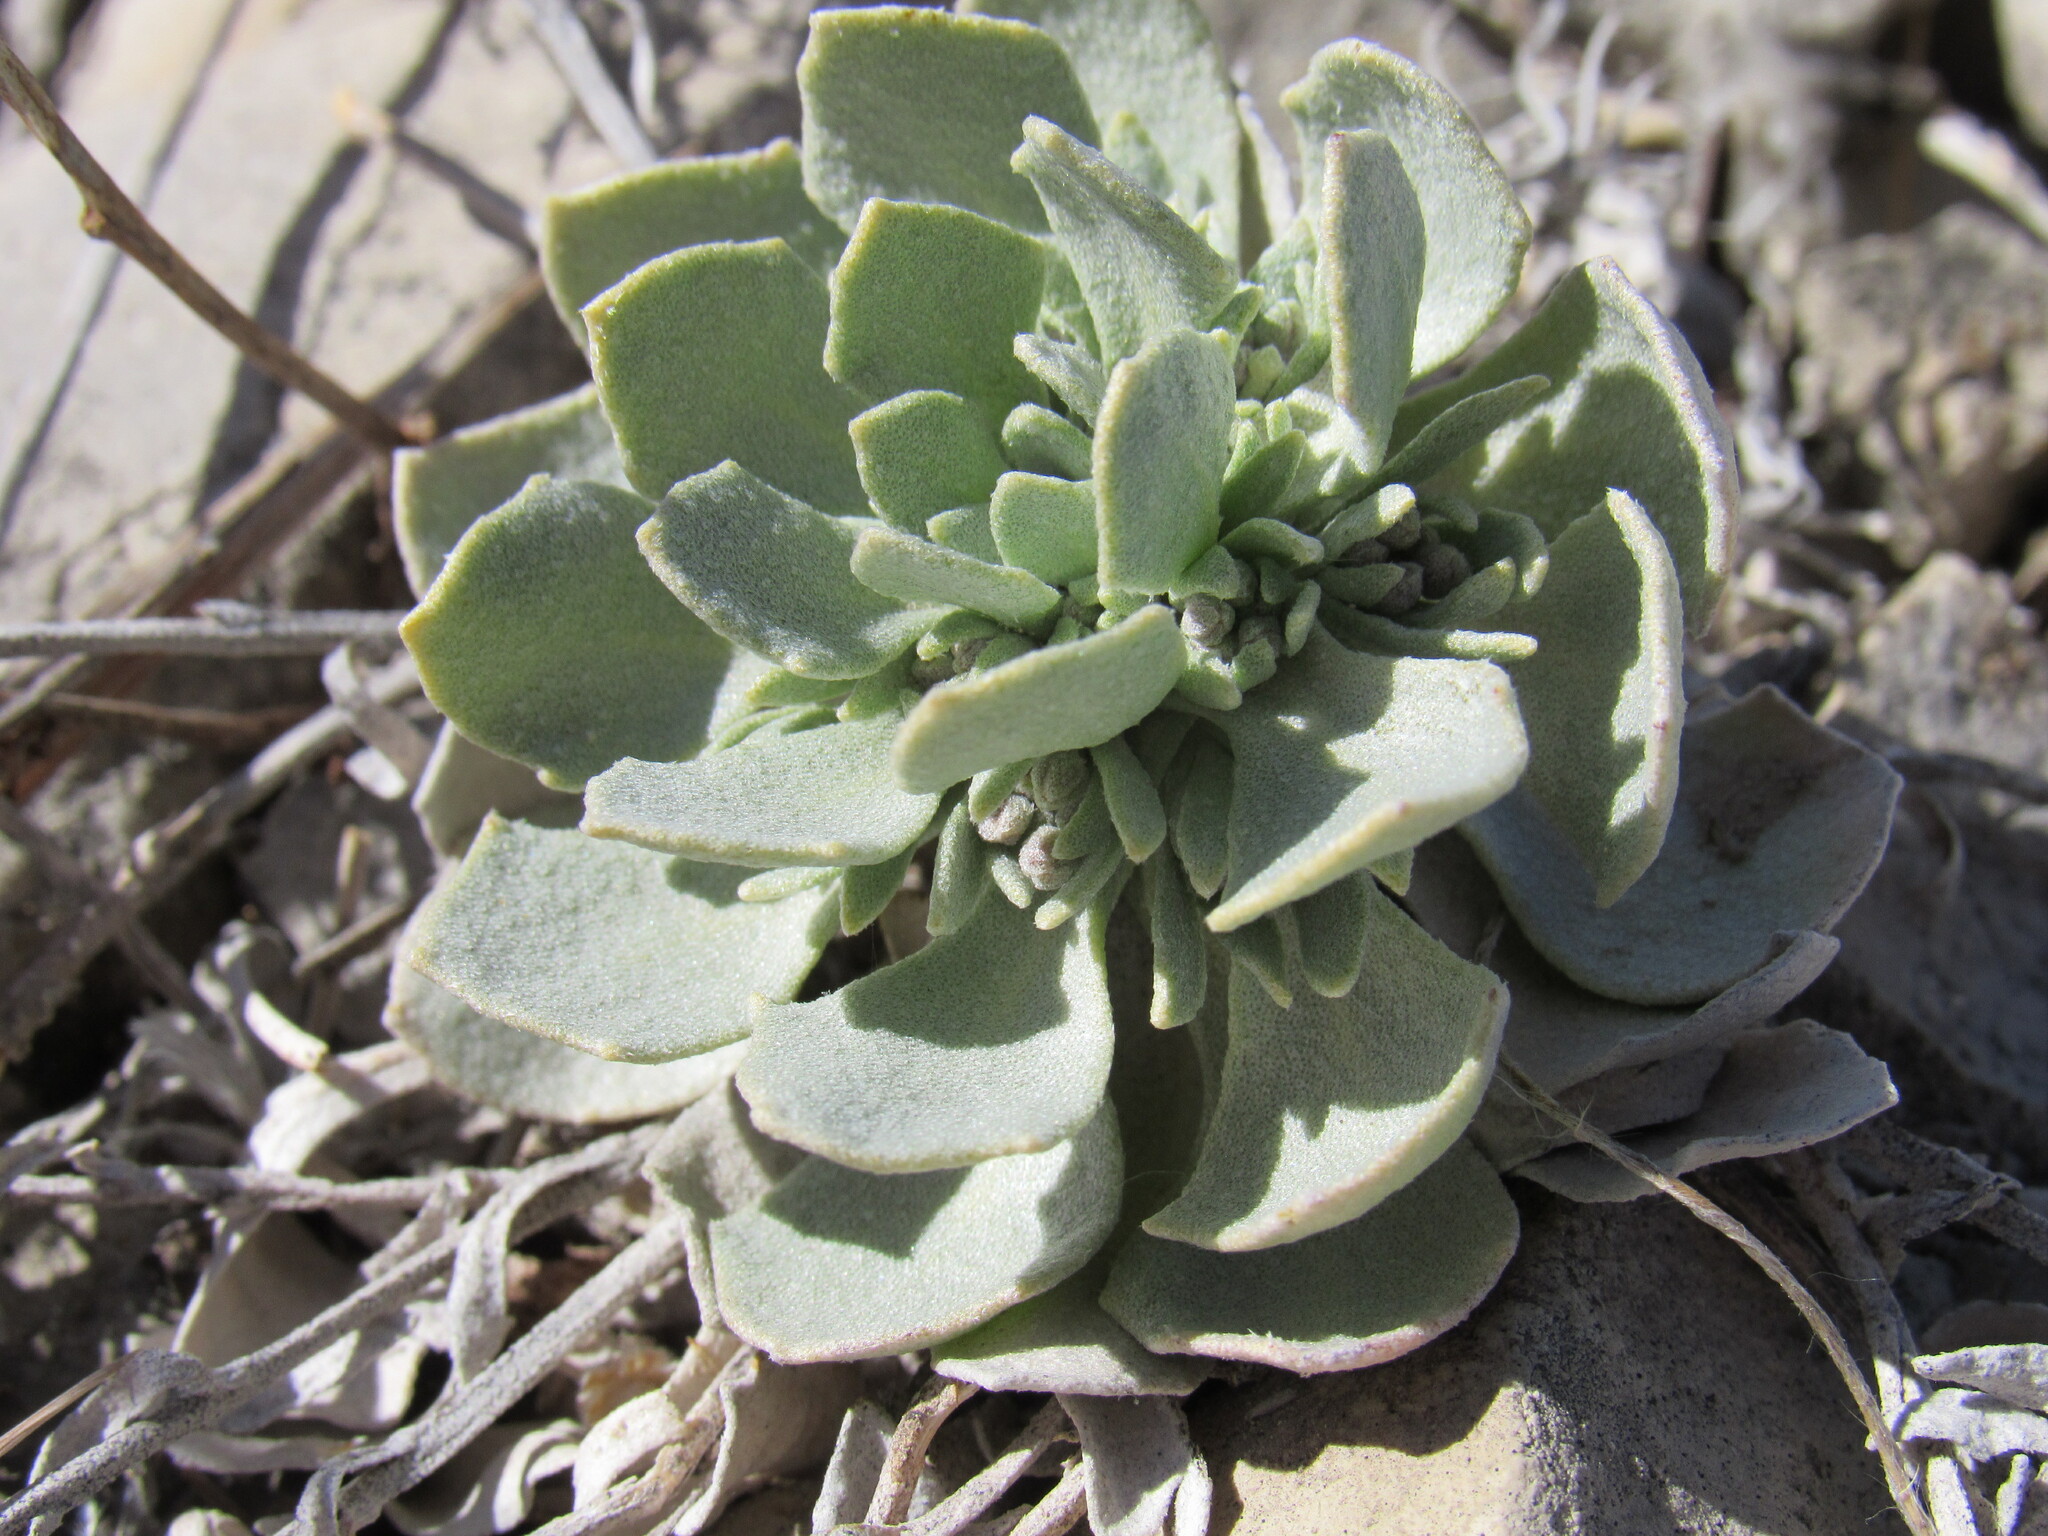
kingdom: Plantae
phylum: Tracheophyta
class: Magnoliopsida
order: Brassicales
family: Brassicaceae
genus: Physaria
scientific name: Physaria bellii
